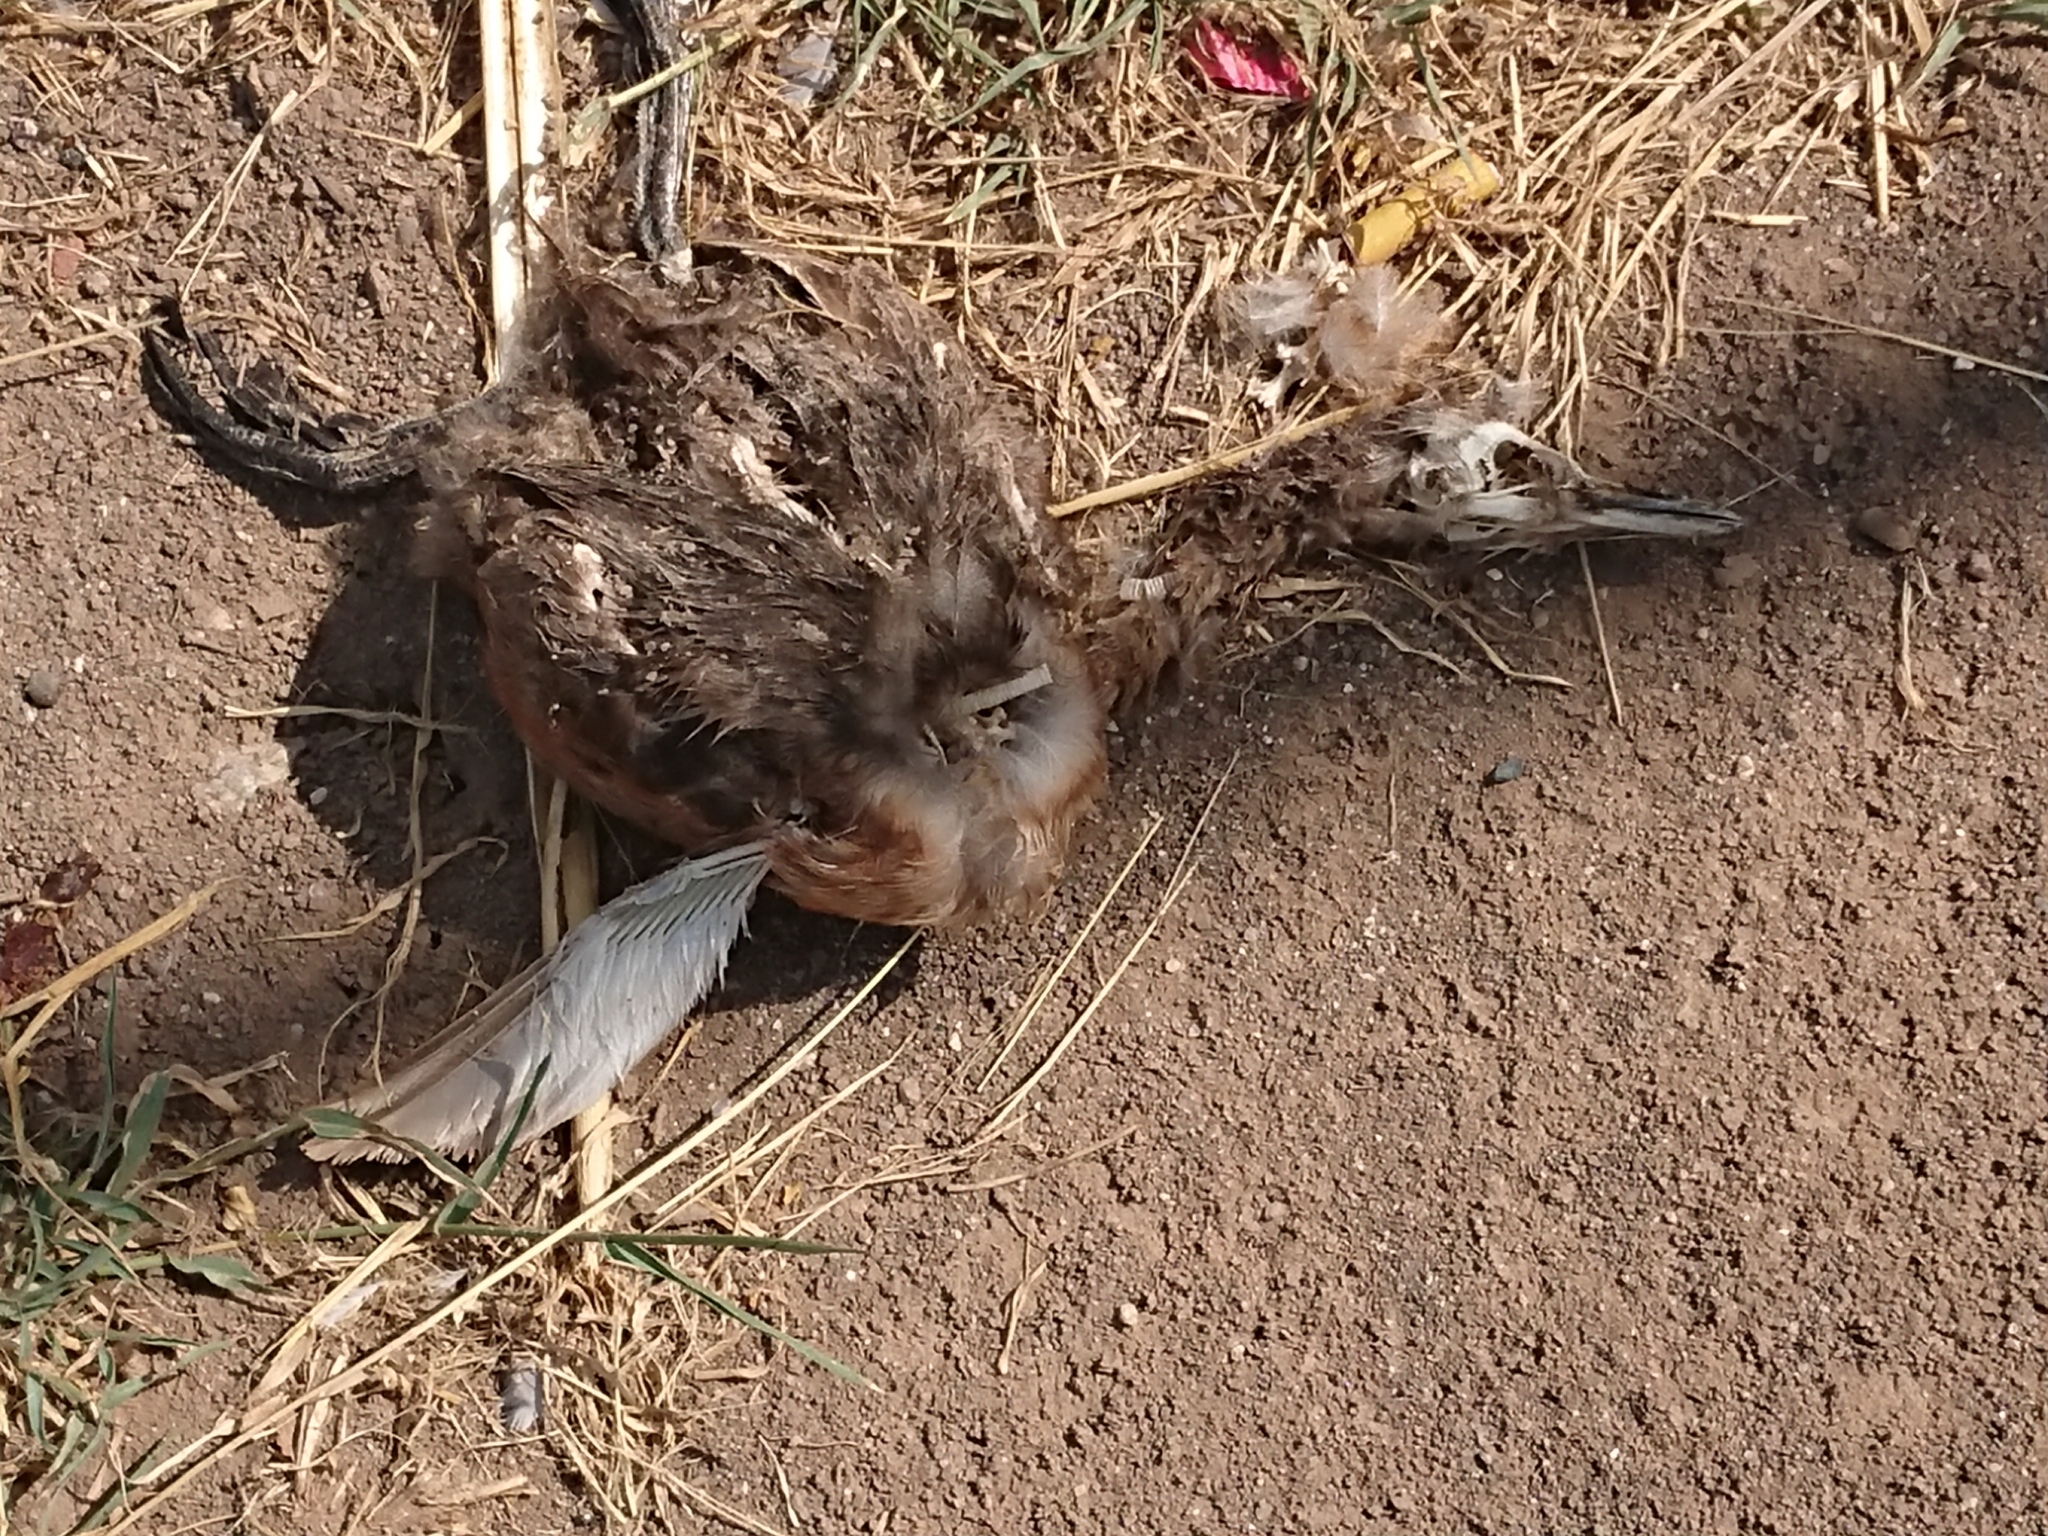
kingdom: Animalia
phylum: Chordata
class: Aves
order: Podicipediformes
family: Podicipedidae
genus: Rollandia
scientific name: Rollandia rolland
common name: White-tufted grebe
